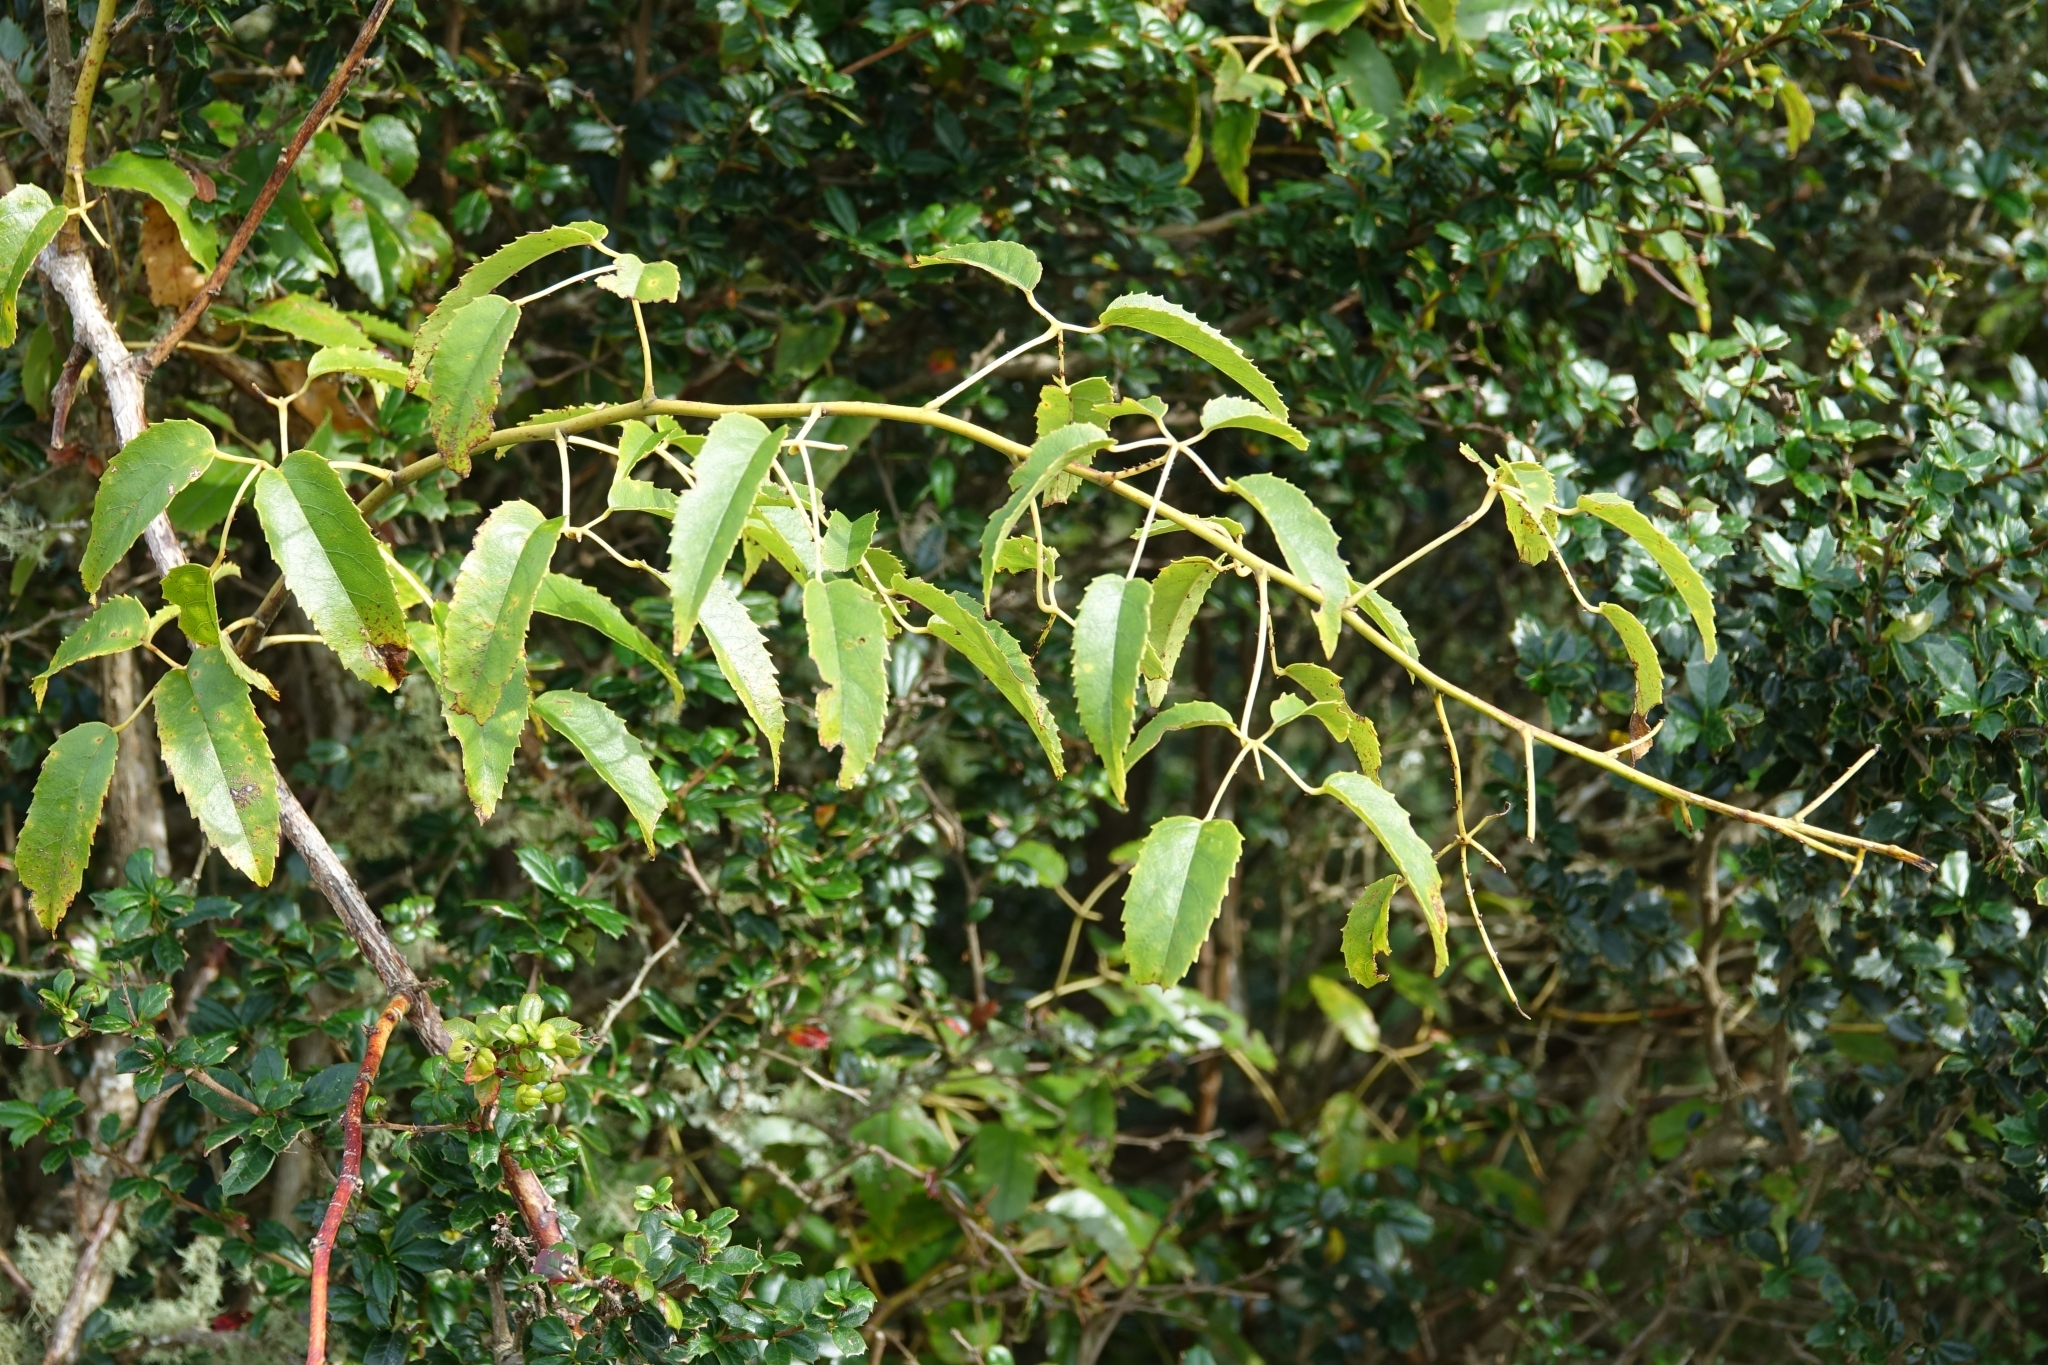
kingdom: Plantae
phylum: Tracheophyta
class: Magnoliopsida
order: Rosales
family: Rosaceae
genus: Rubus
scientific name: Rubus cissoides
